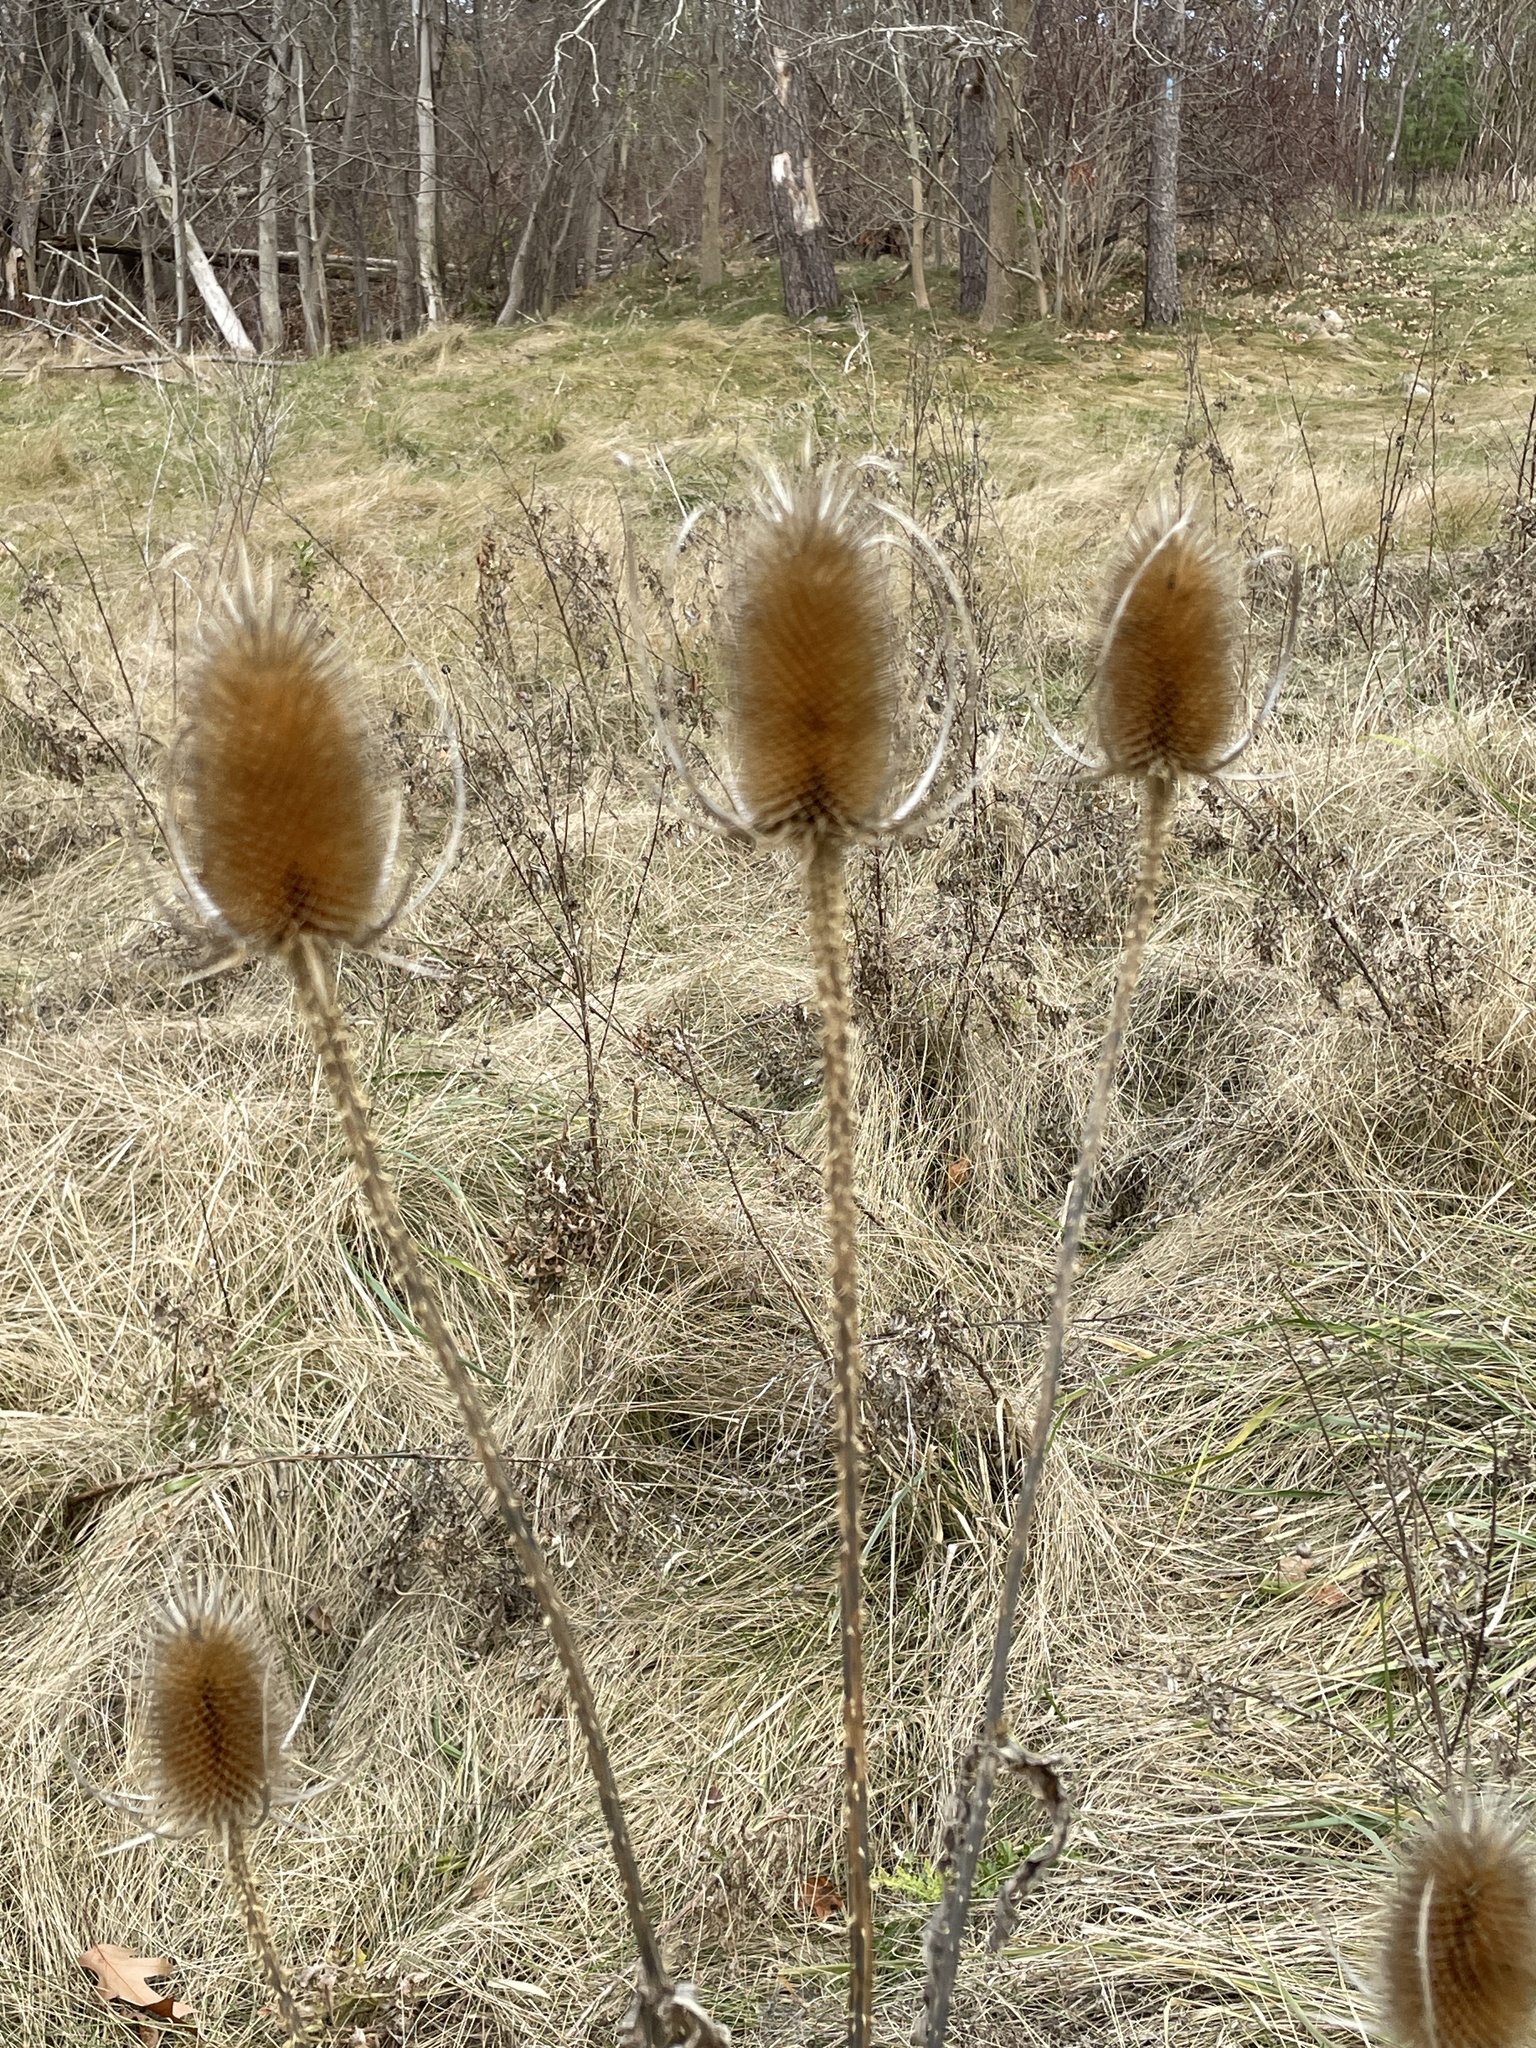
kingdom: Plantae
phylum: Tracheophyta
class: Magnoliopsida
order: Dipsacales
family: Caprifoliaceae
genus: Dipsacus
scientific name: Dipsacus fullonum
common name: Teasel
